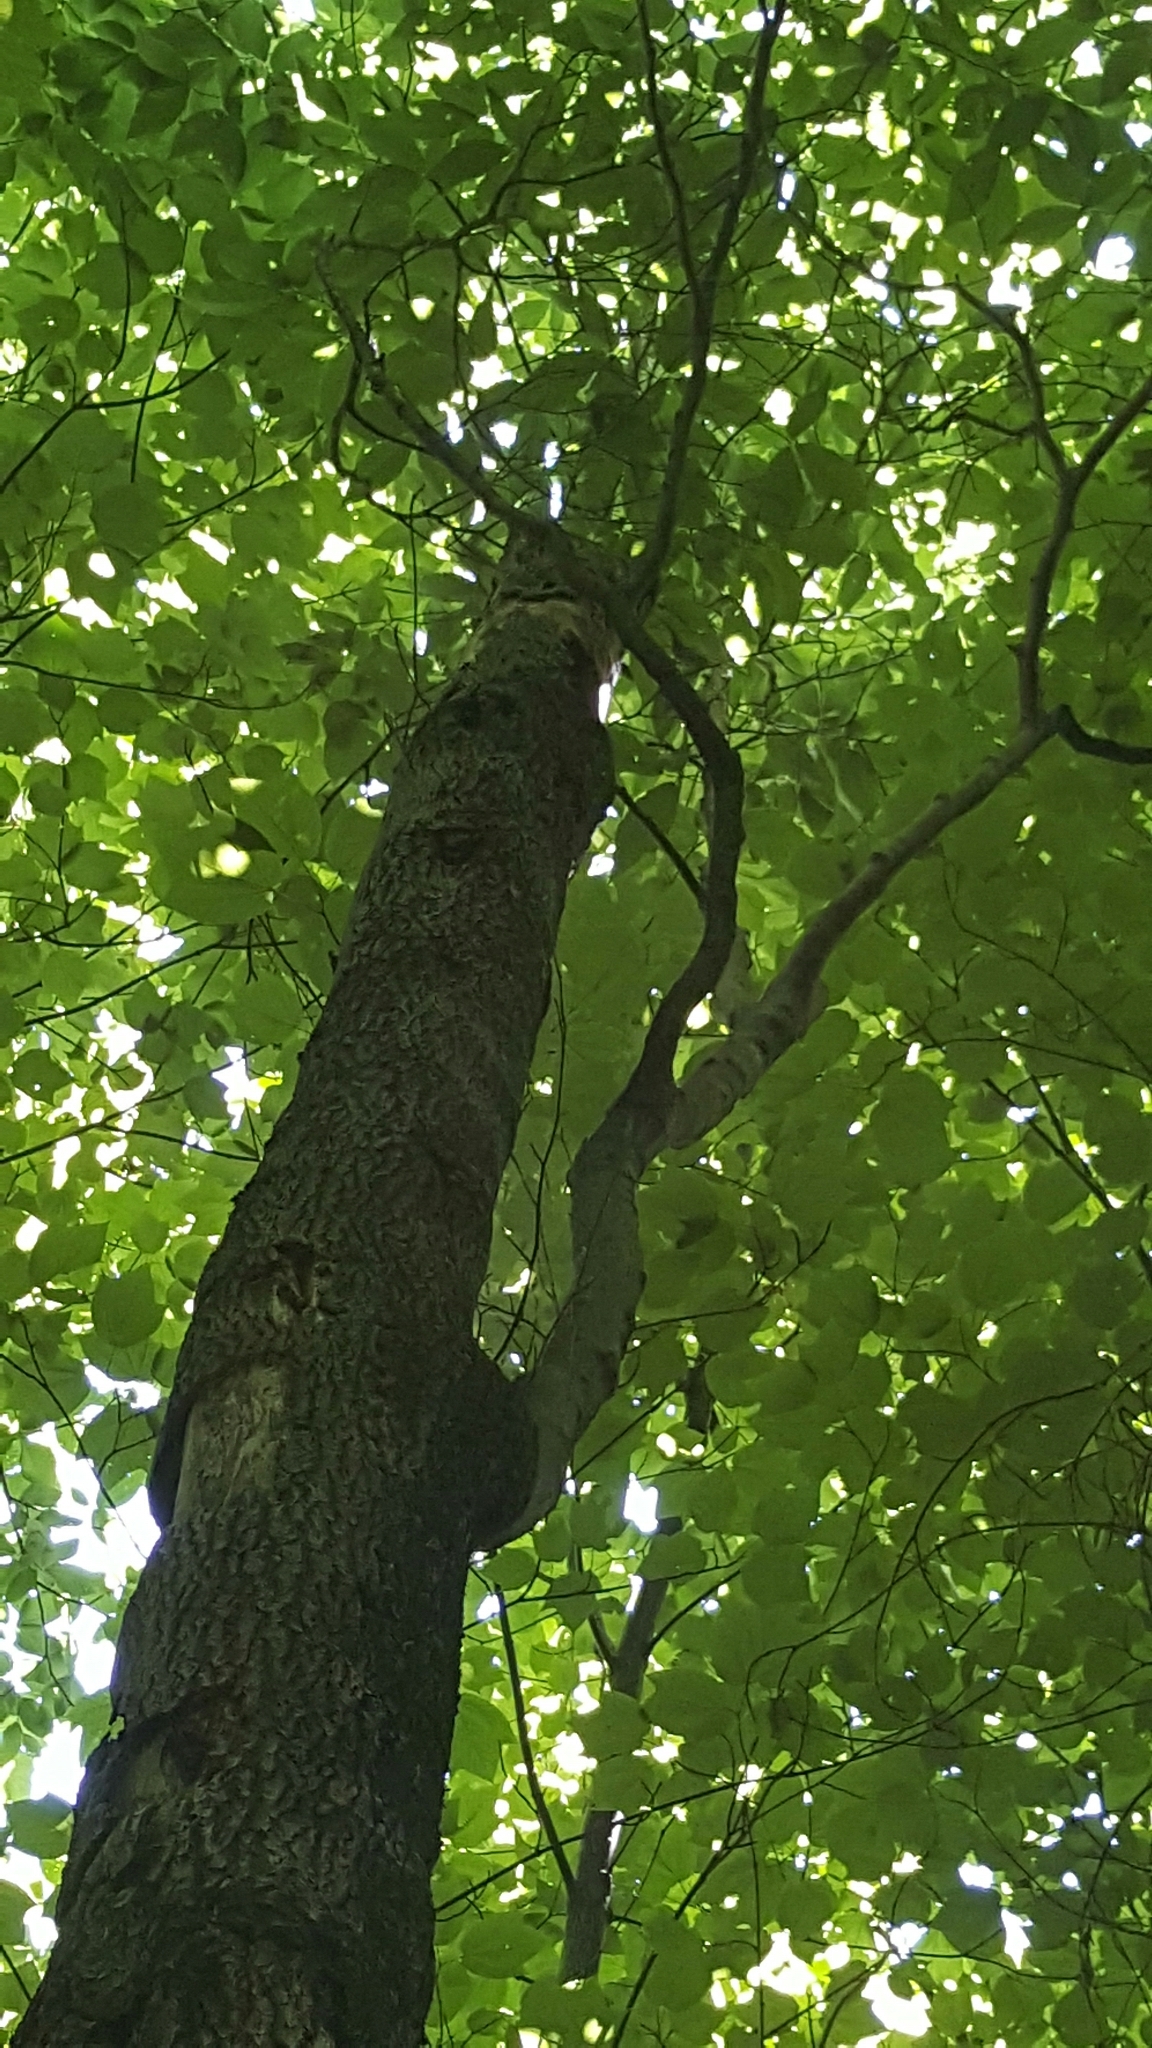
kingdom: Plantae
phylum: Tracheophyta
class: Magnoliopsida
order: Fagales
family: Fagaceae
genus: Fagus
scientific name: Fagus grandifolia
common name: American beech
